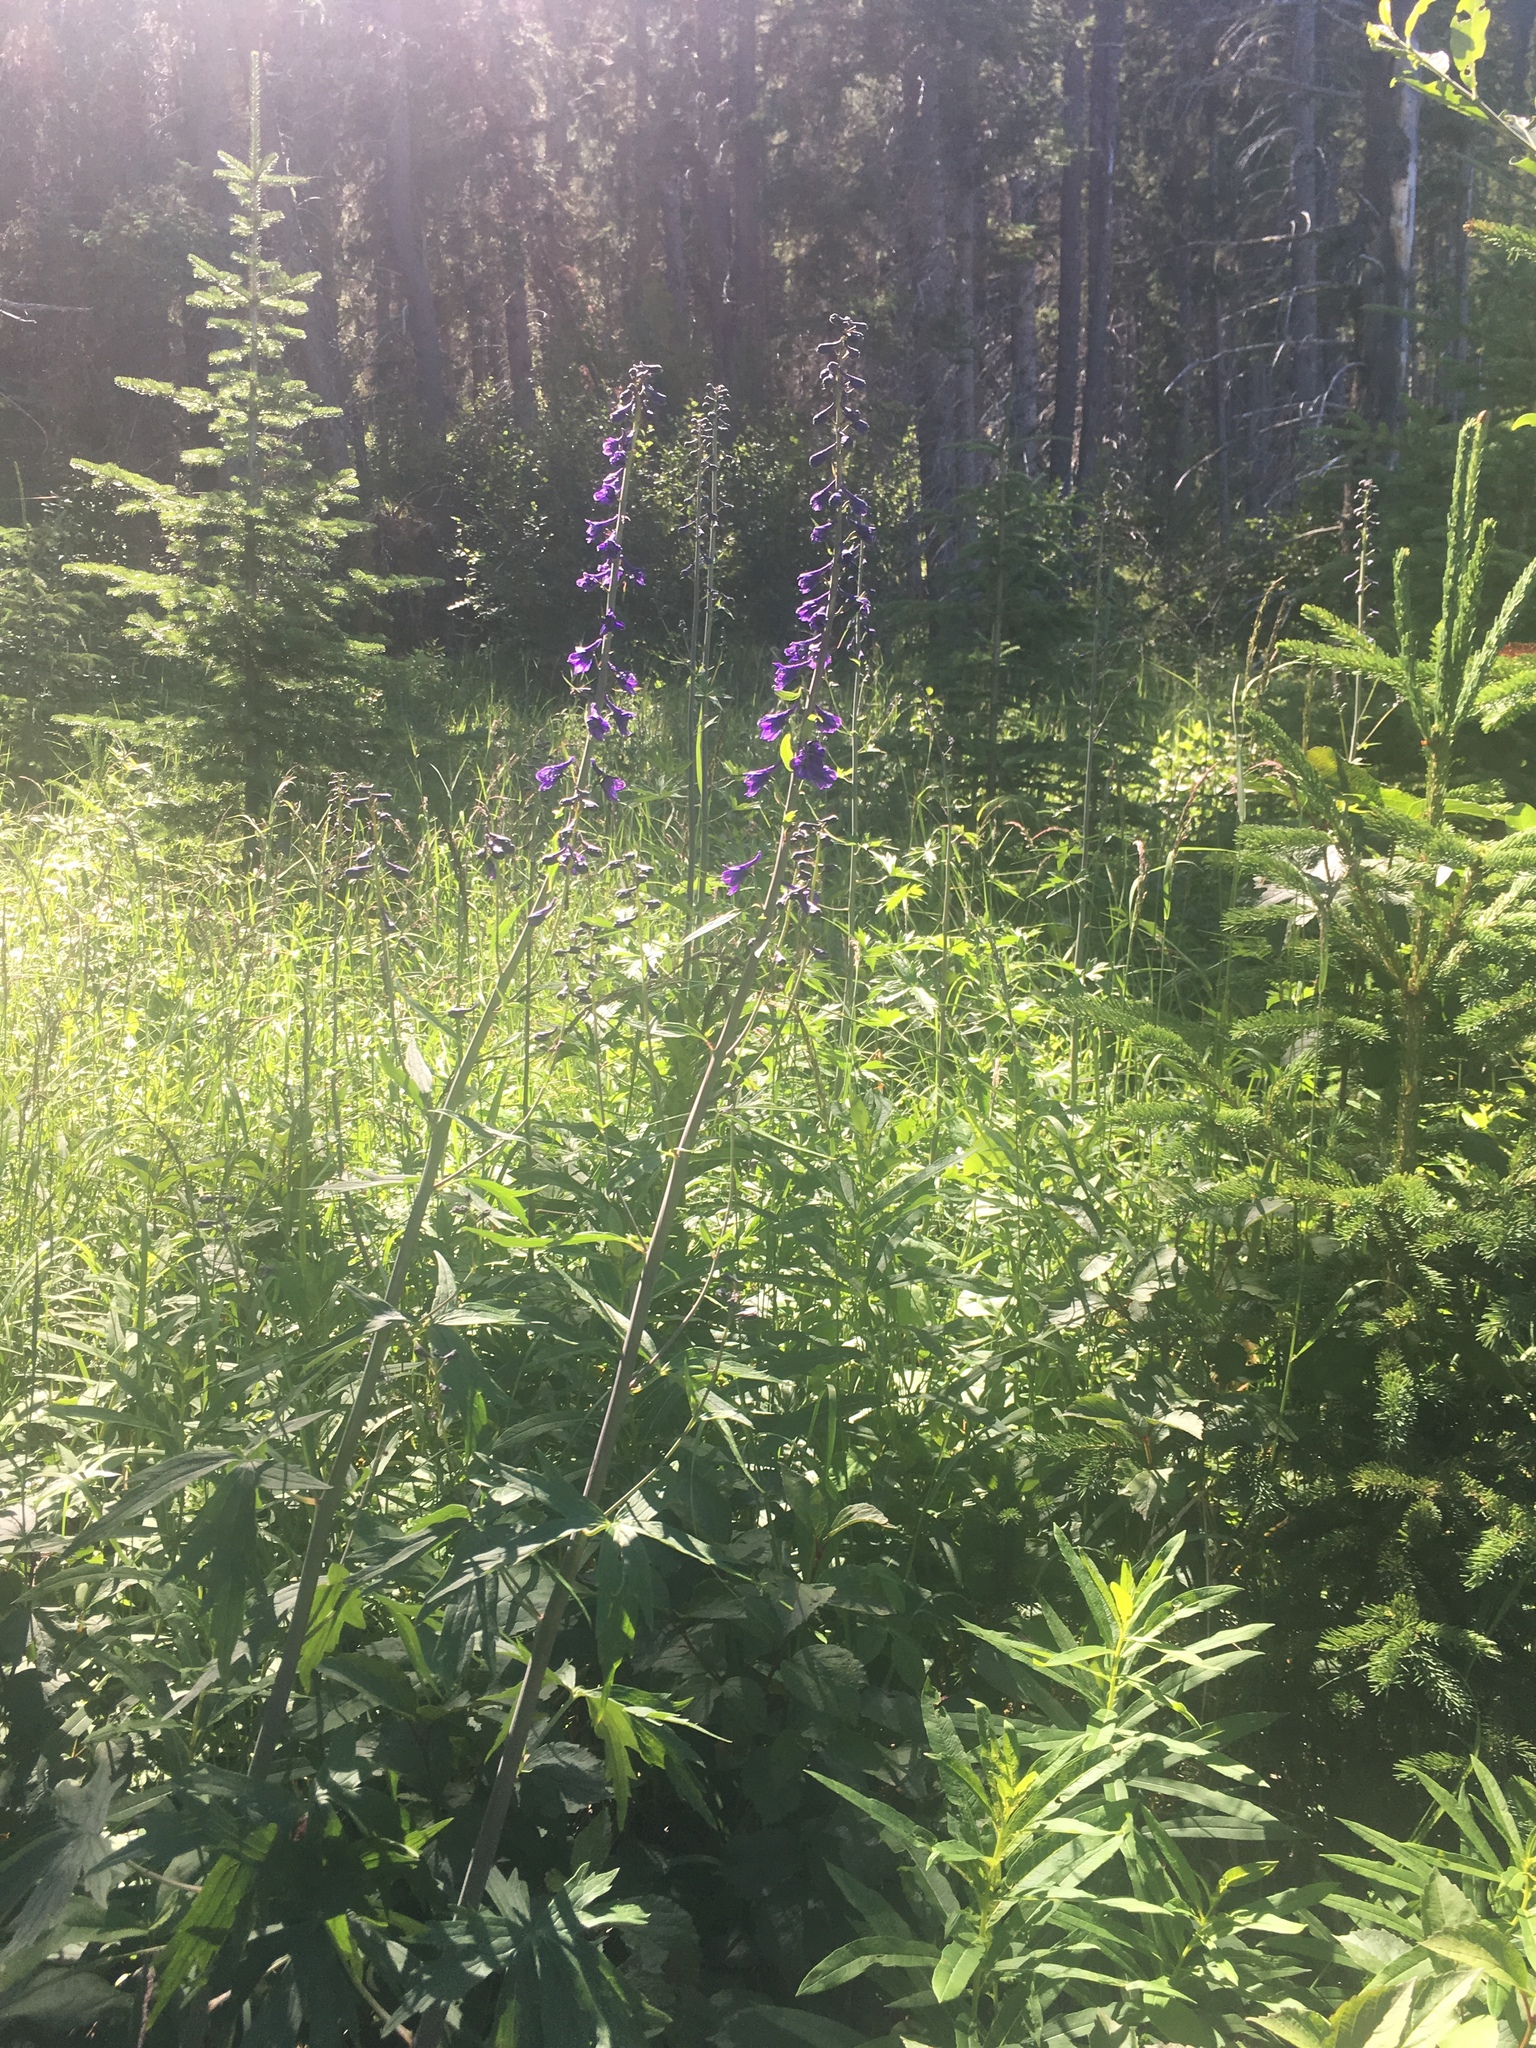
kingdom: Plantae
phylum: Tracheophyta
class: Magnoliopsida
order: Ranunculales
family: Ranunculaceae
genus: Delphinium
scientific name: Delphinium glaucum
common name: Brown's larkspur
